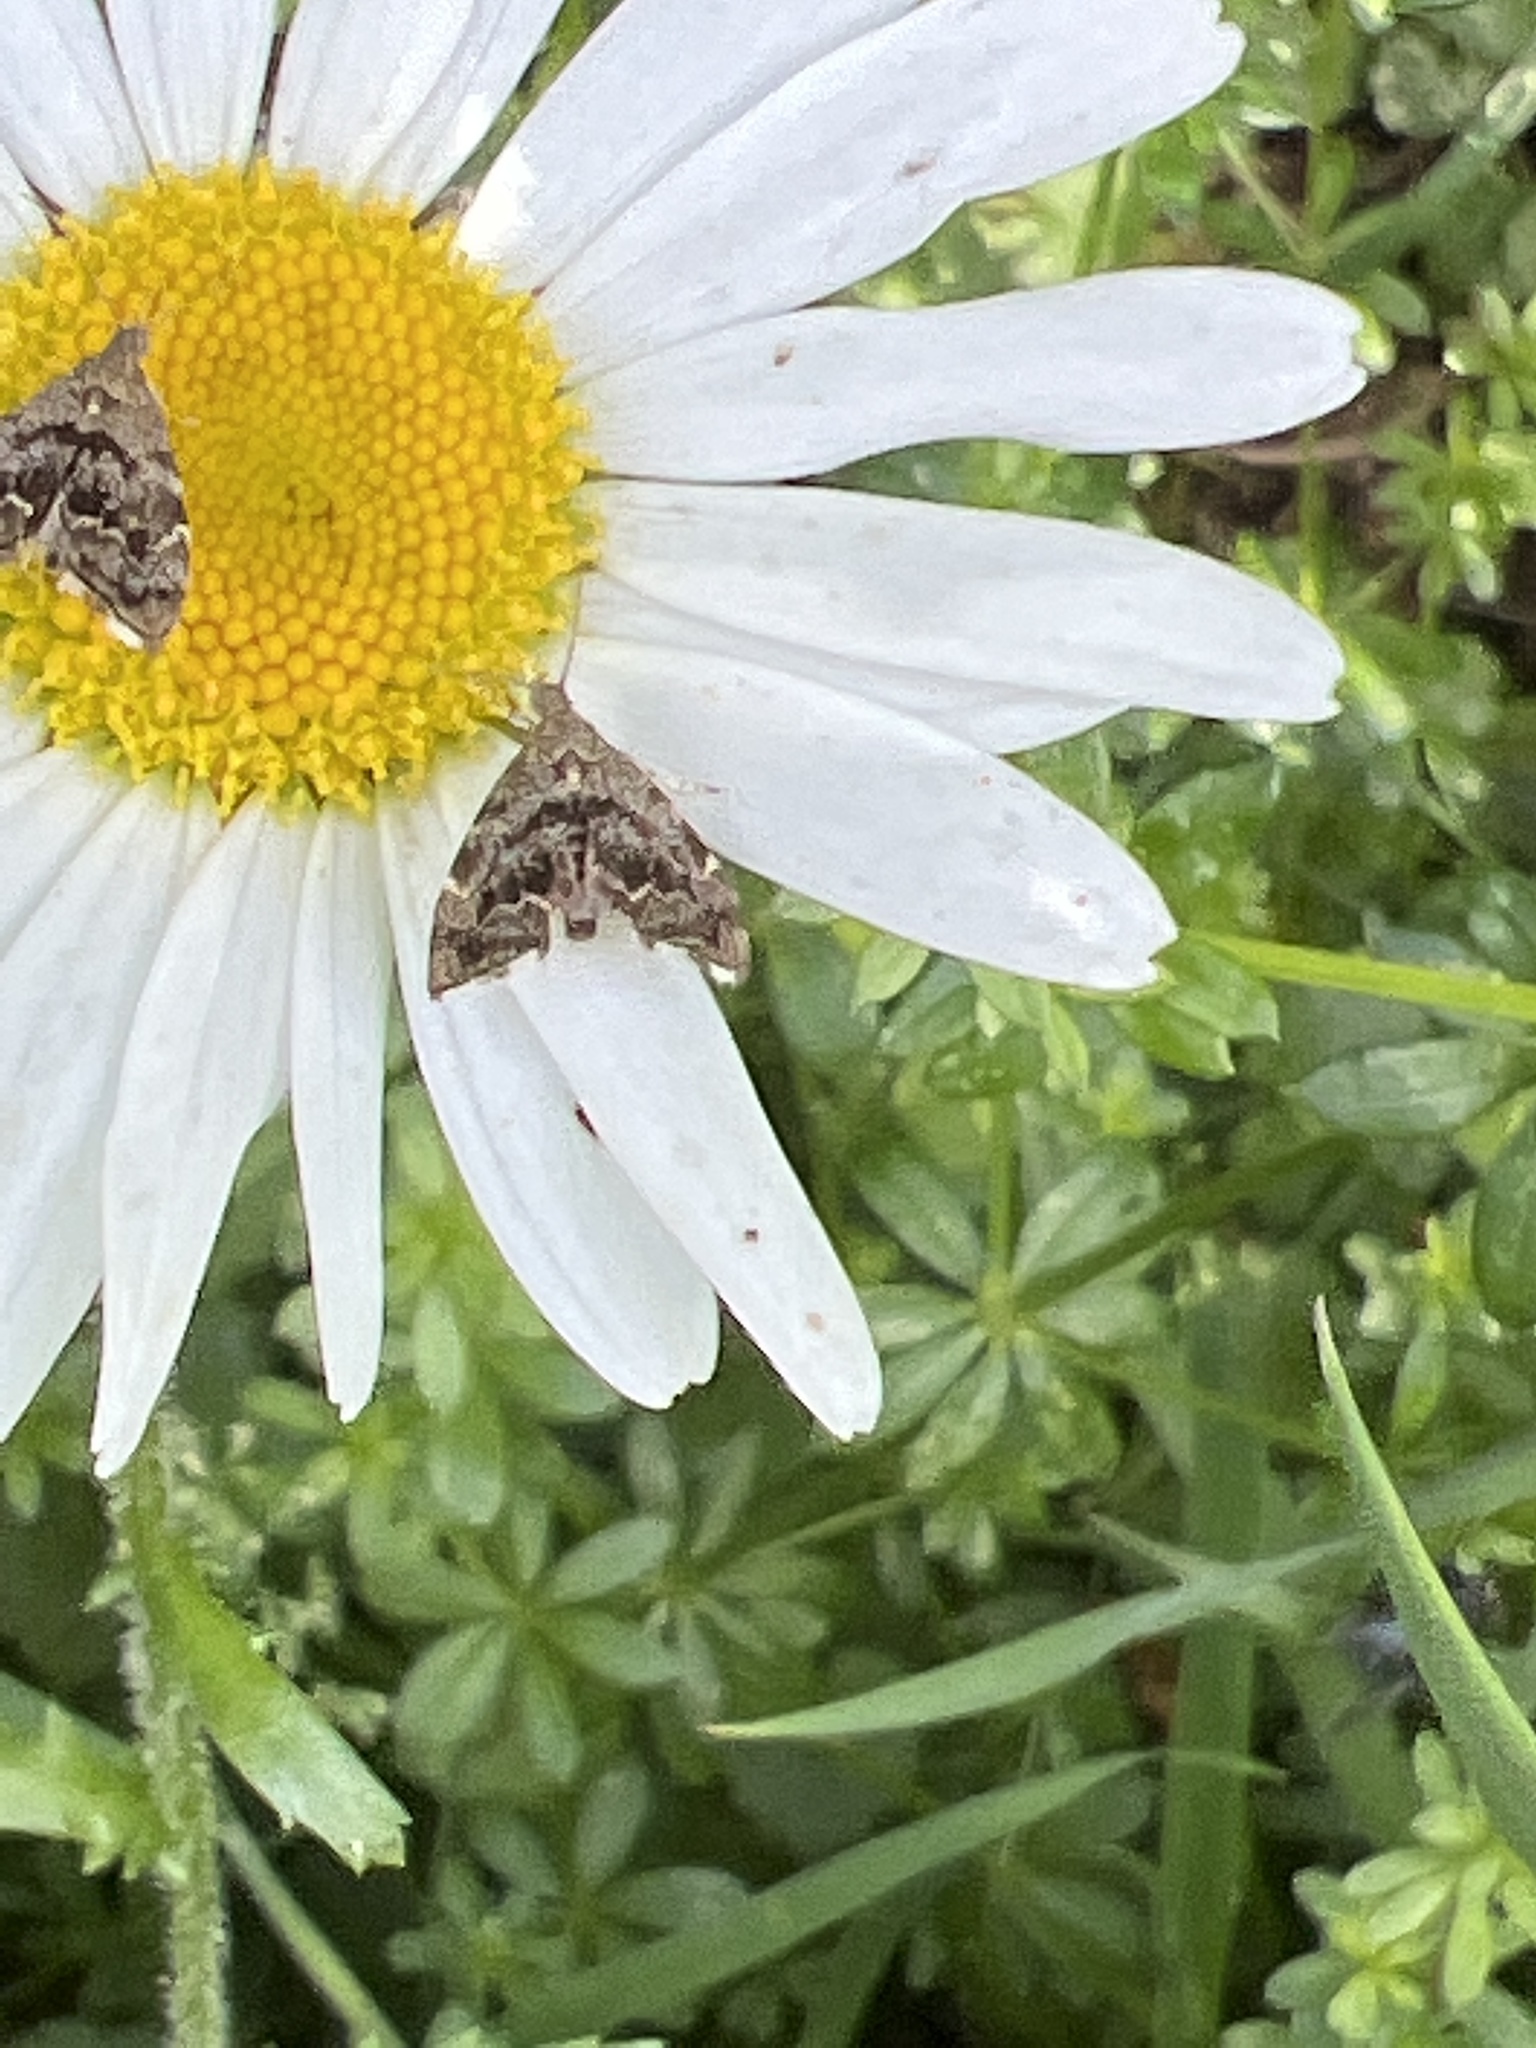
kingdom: Animalia
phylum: Arthropoda
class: Insecta
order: Lepidoptera
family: Choreutidae
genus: Anthophila
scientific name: Anthophila fabriciana
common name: Nettle-tap
